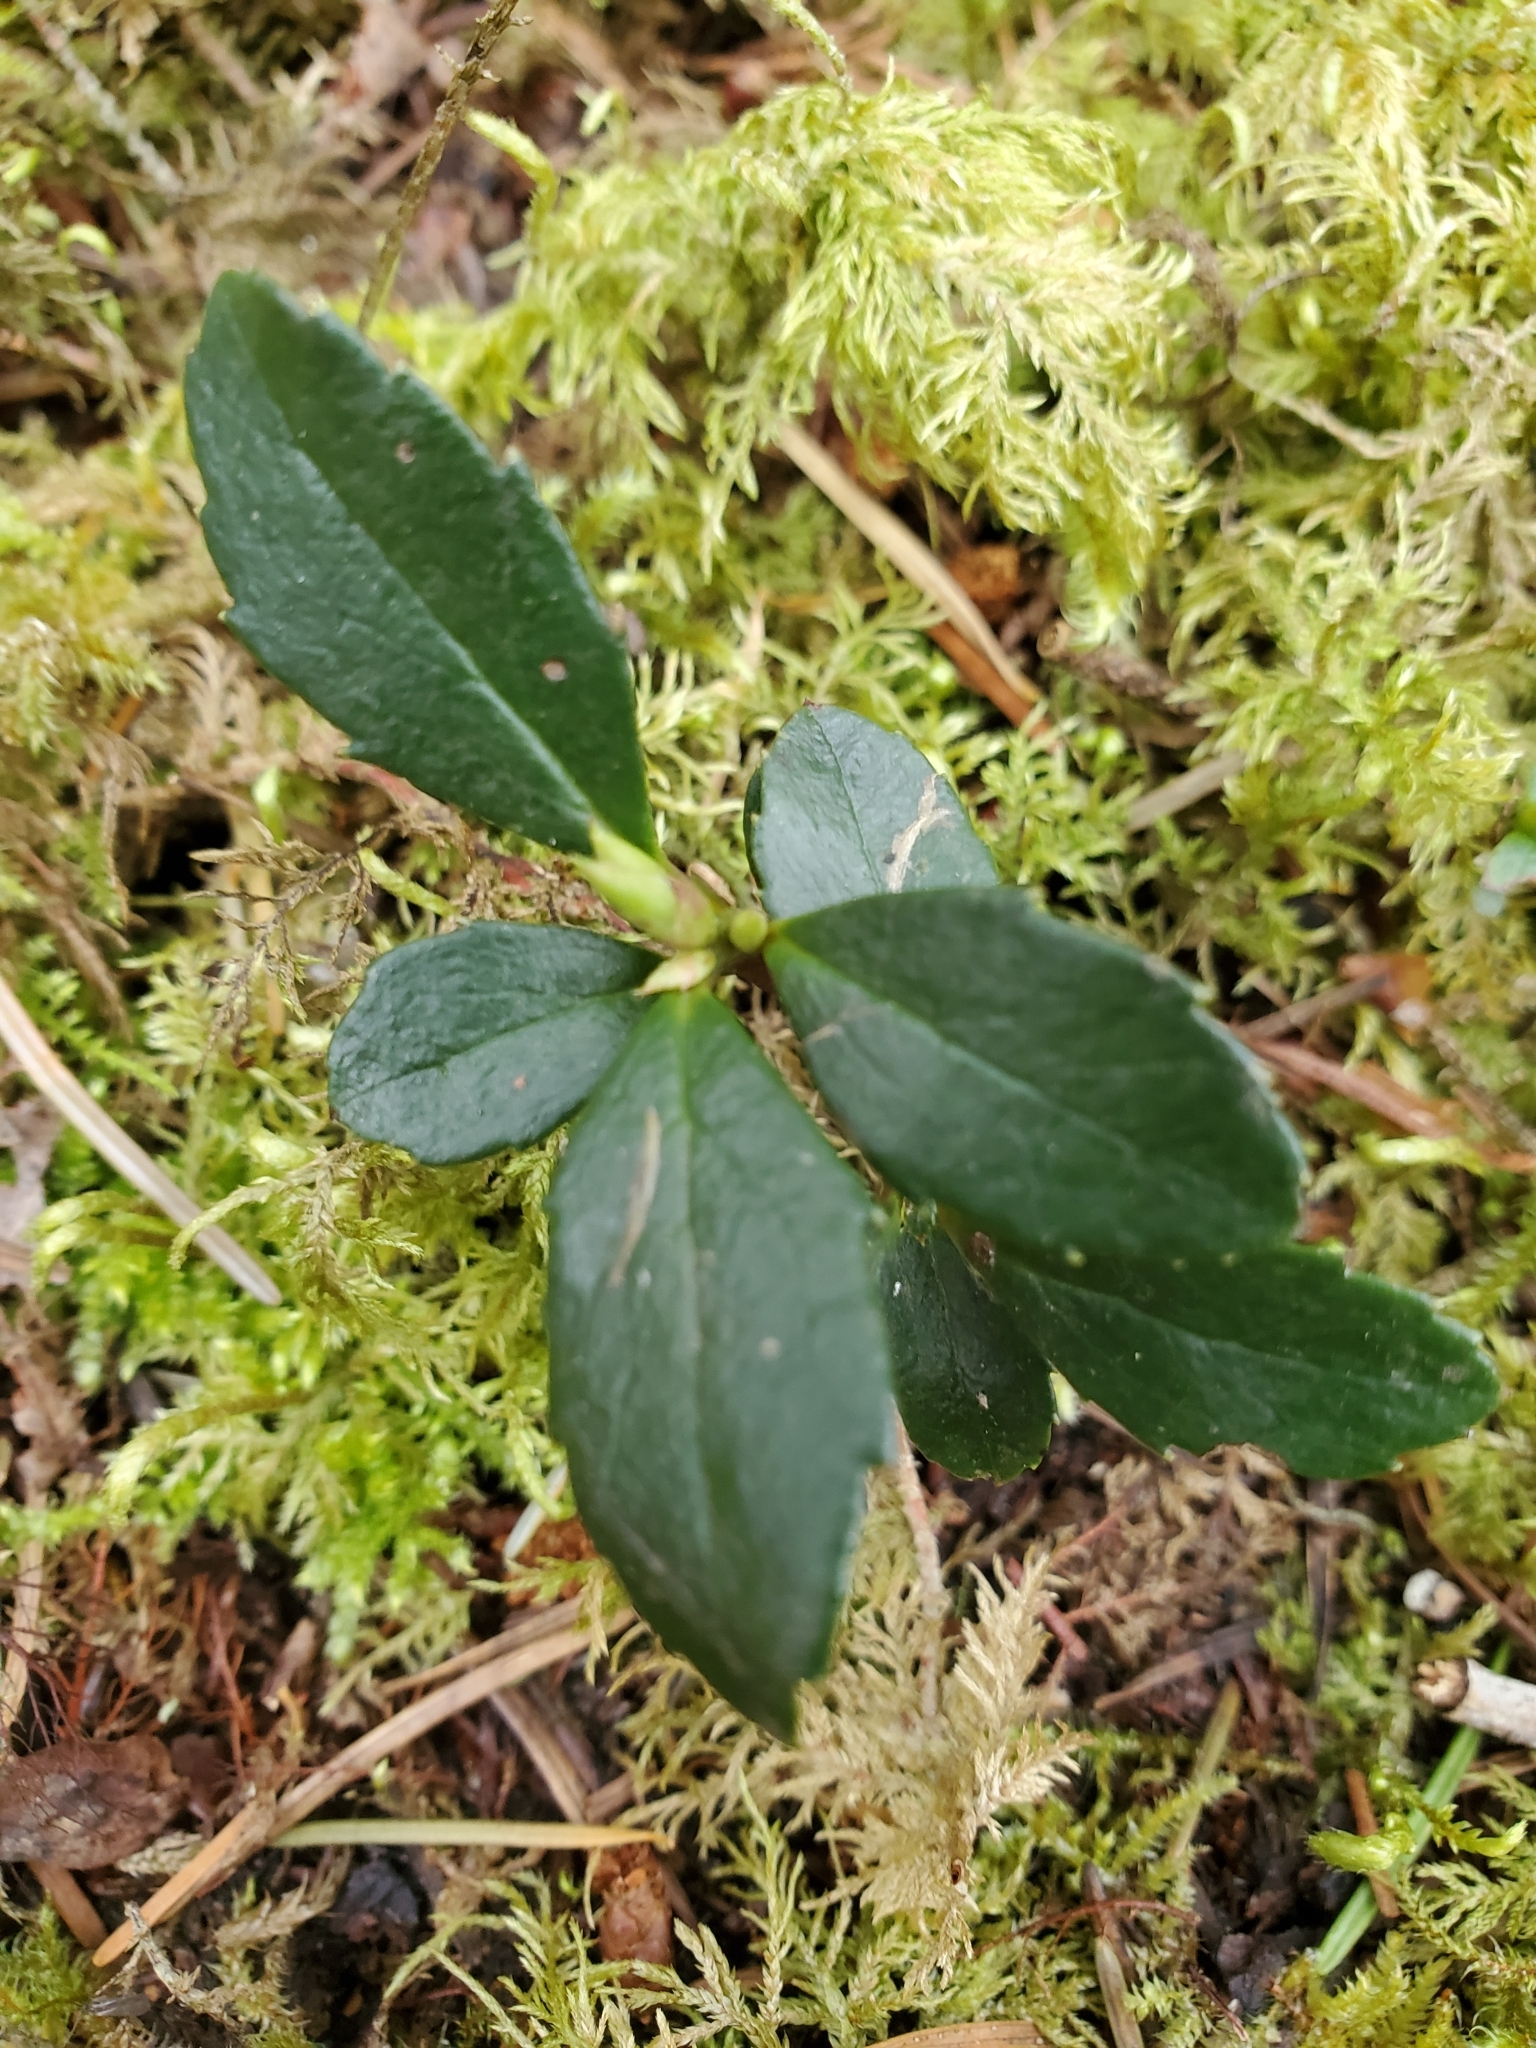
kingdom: Plantae
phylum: Tracheophyta
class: Magnoliopsida
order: Ericales
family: Ericaceae
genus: Chimaphila
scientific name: Chimaphila menziesii
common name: Menzies' pipsissewa
